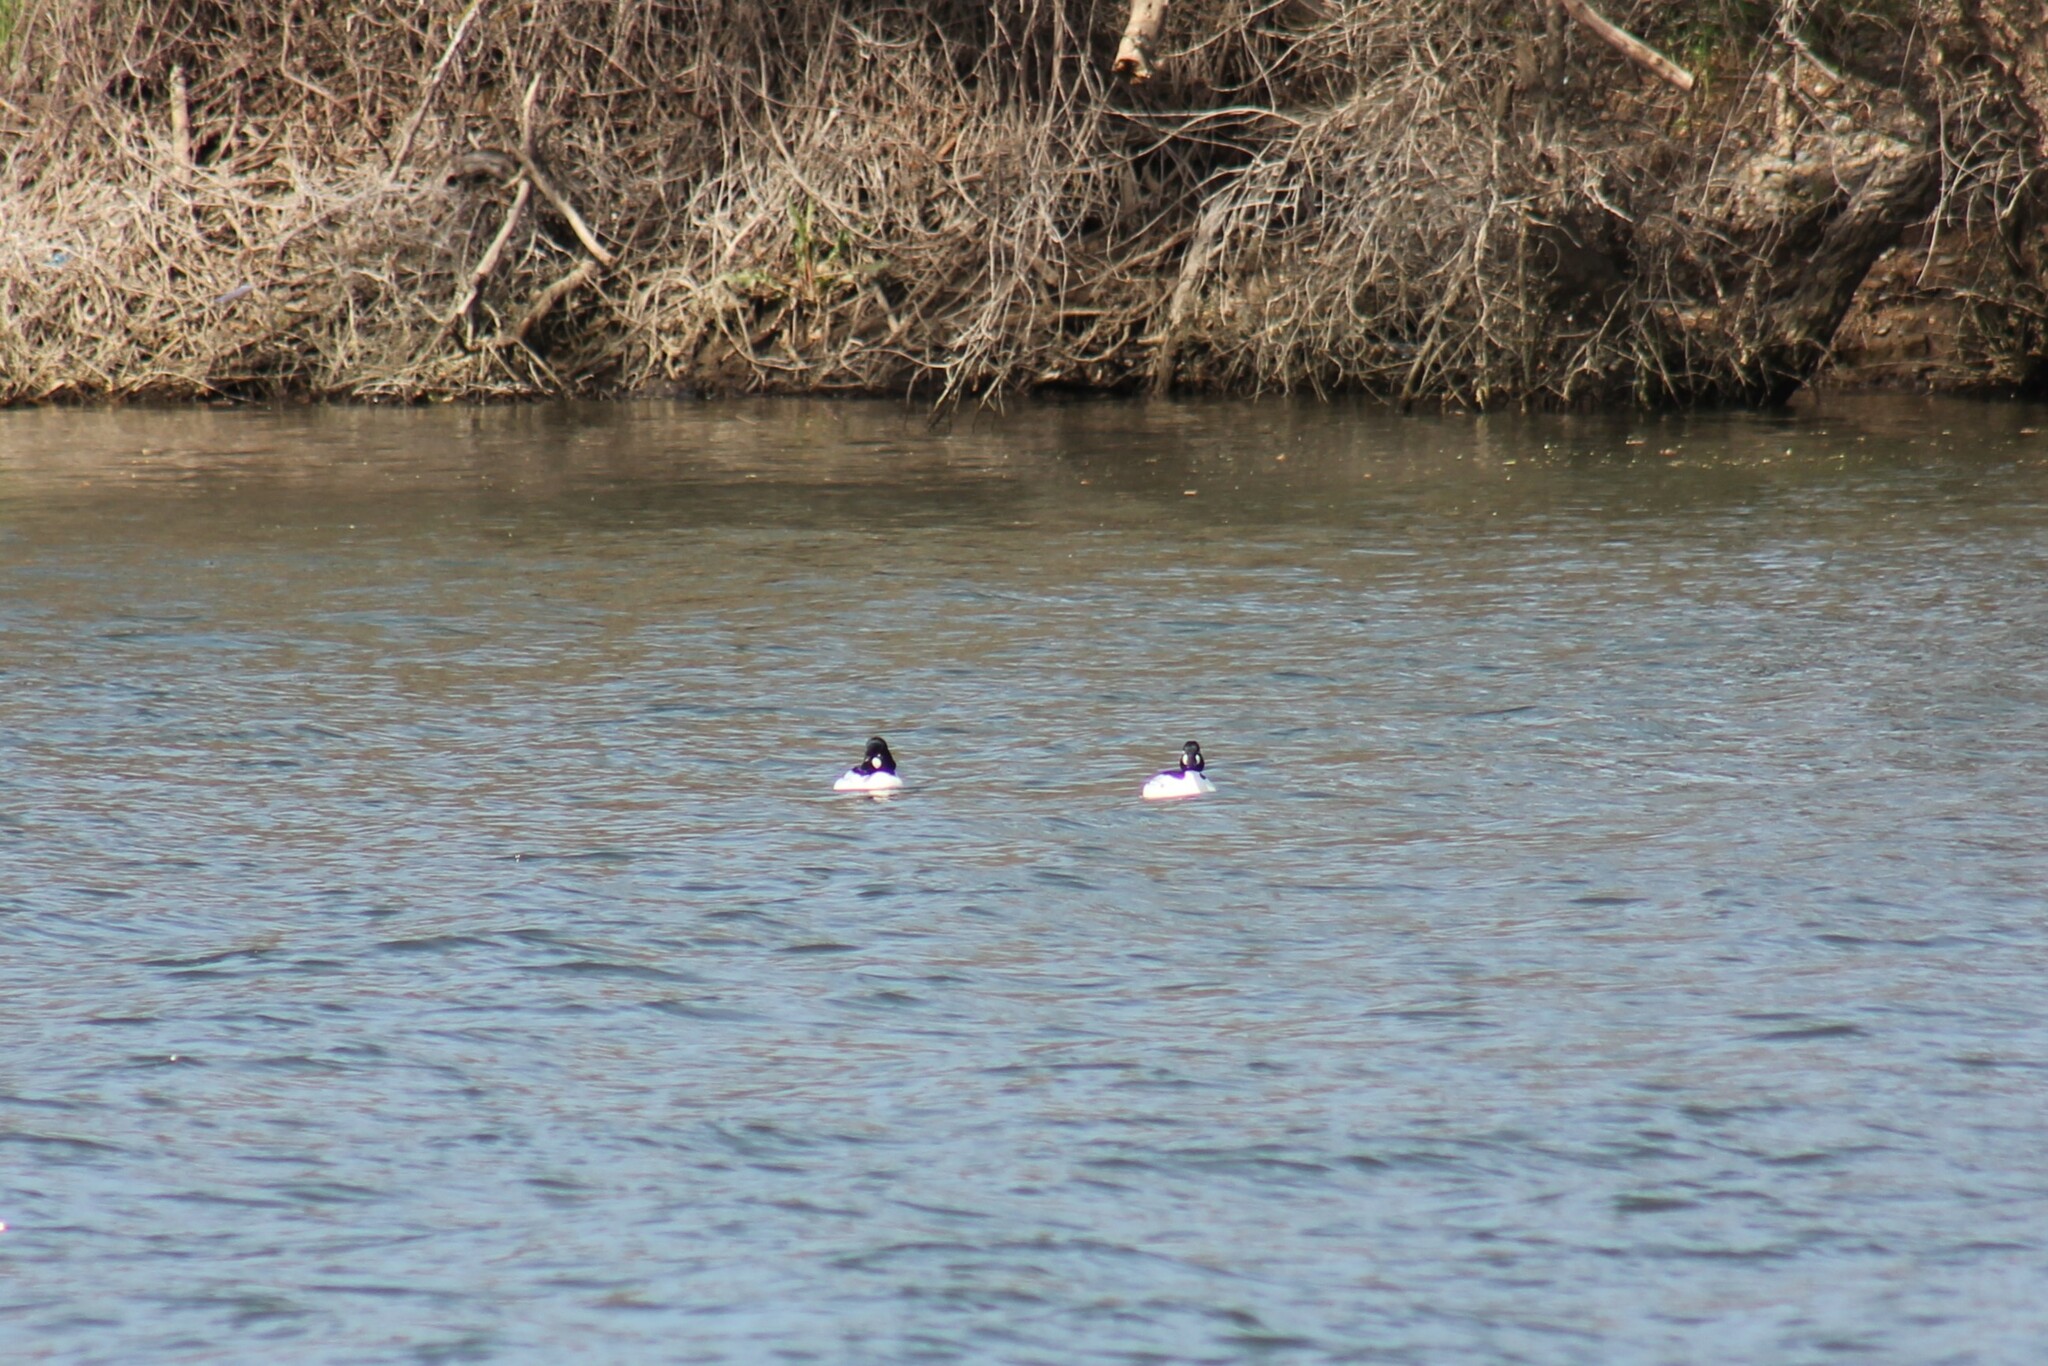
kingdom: Animalia
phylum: Chordata
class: Aves
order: Anseriformes
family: Anatidae
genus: Bucephala
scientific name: Bucephala clangula
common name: Common goldeneye
